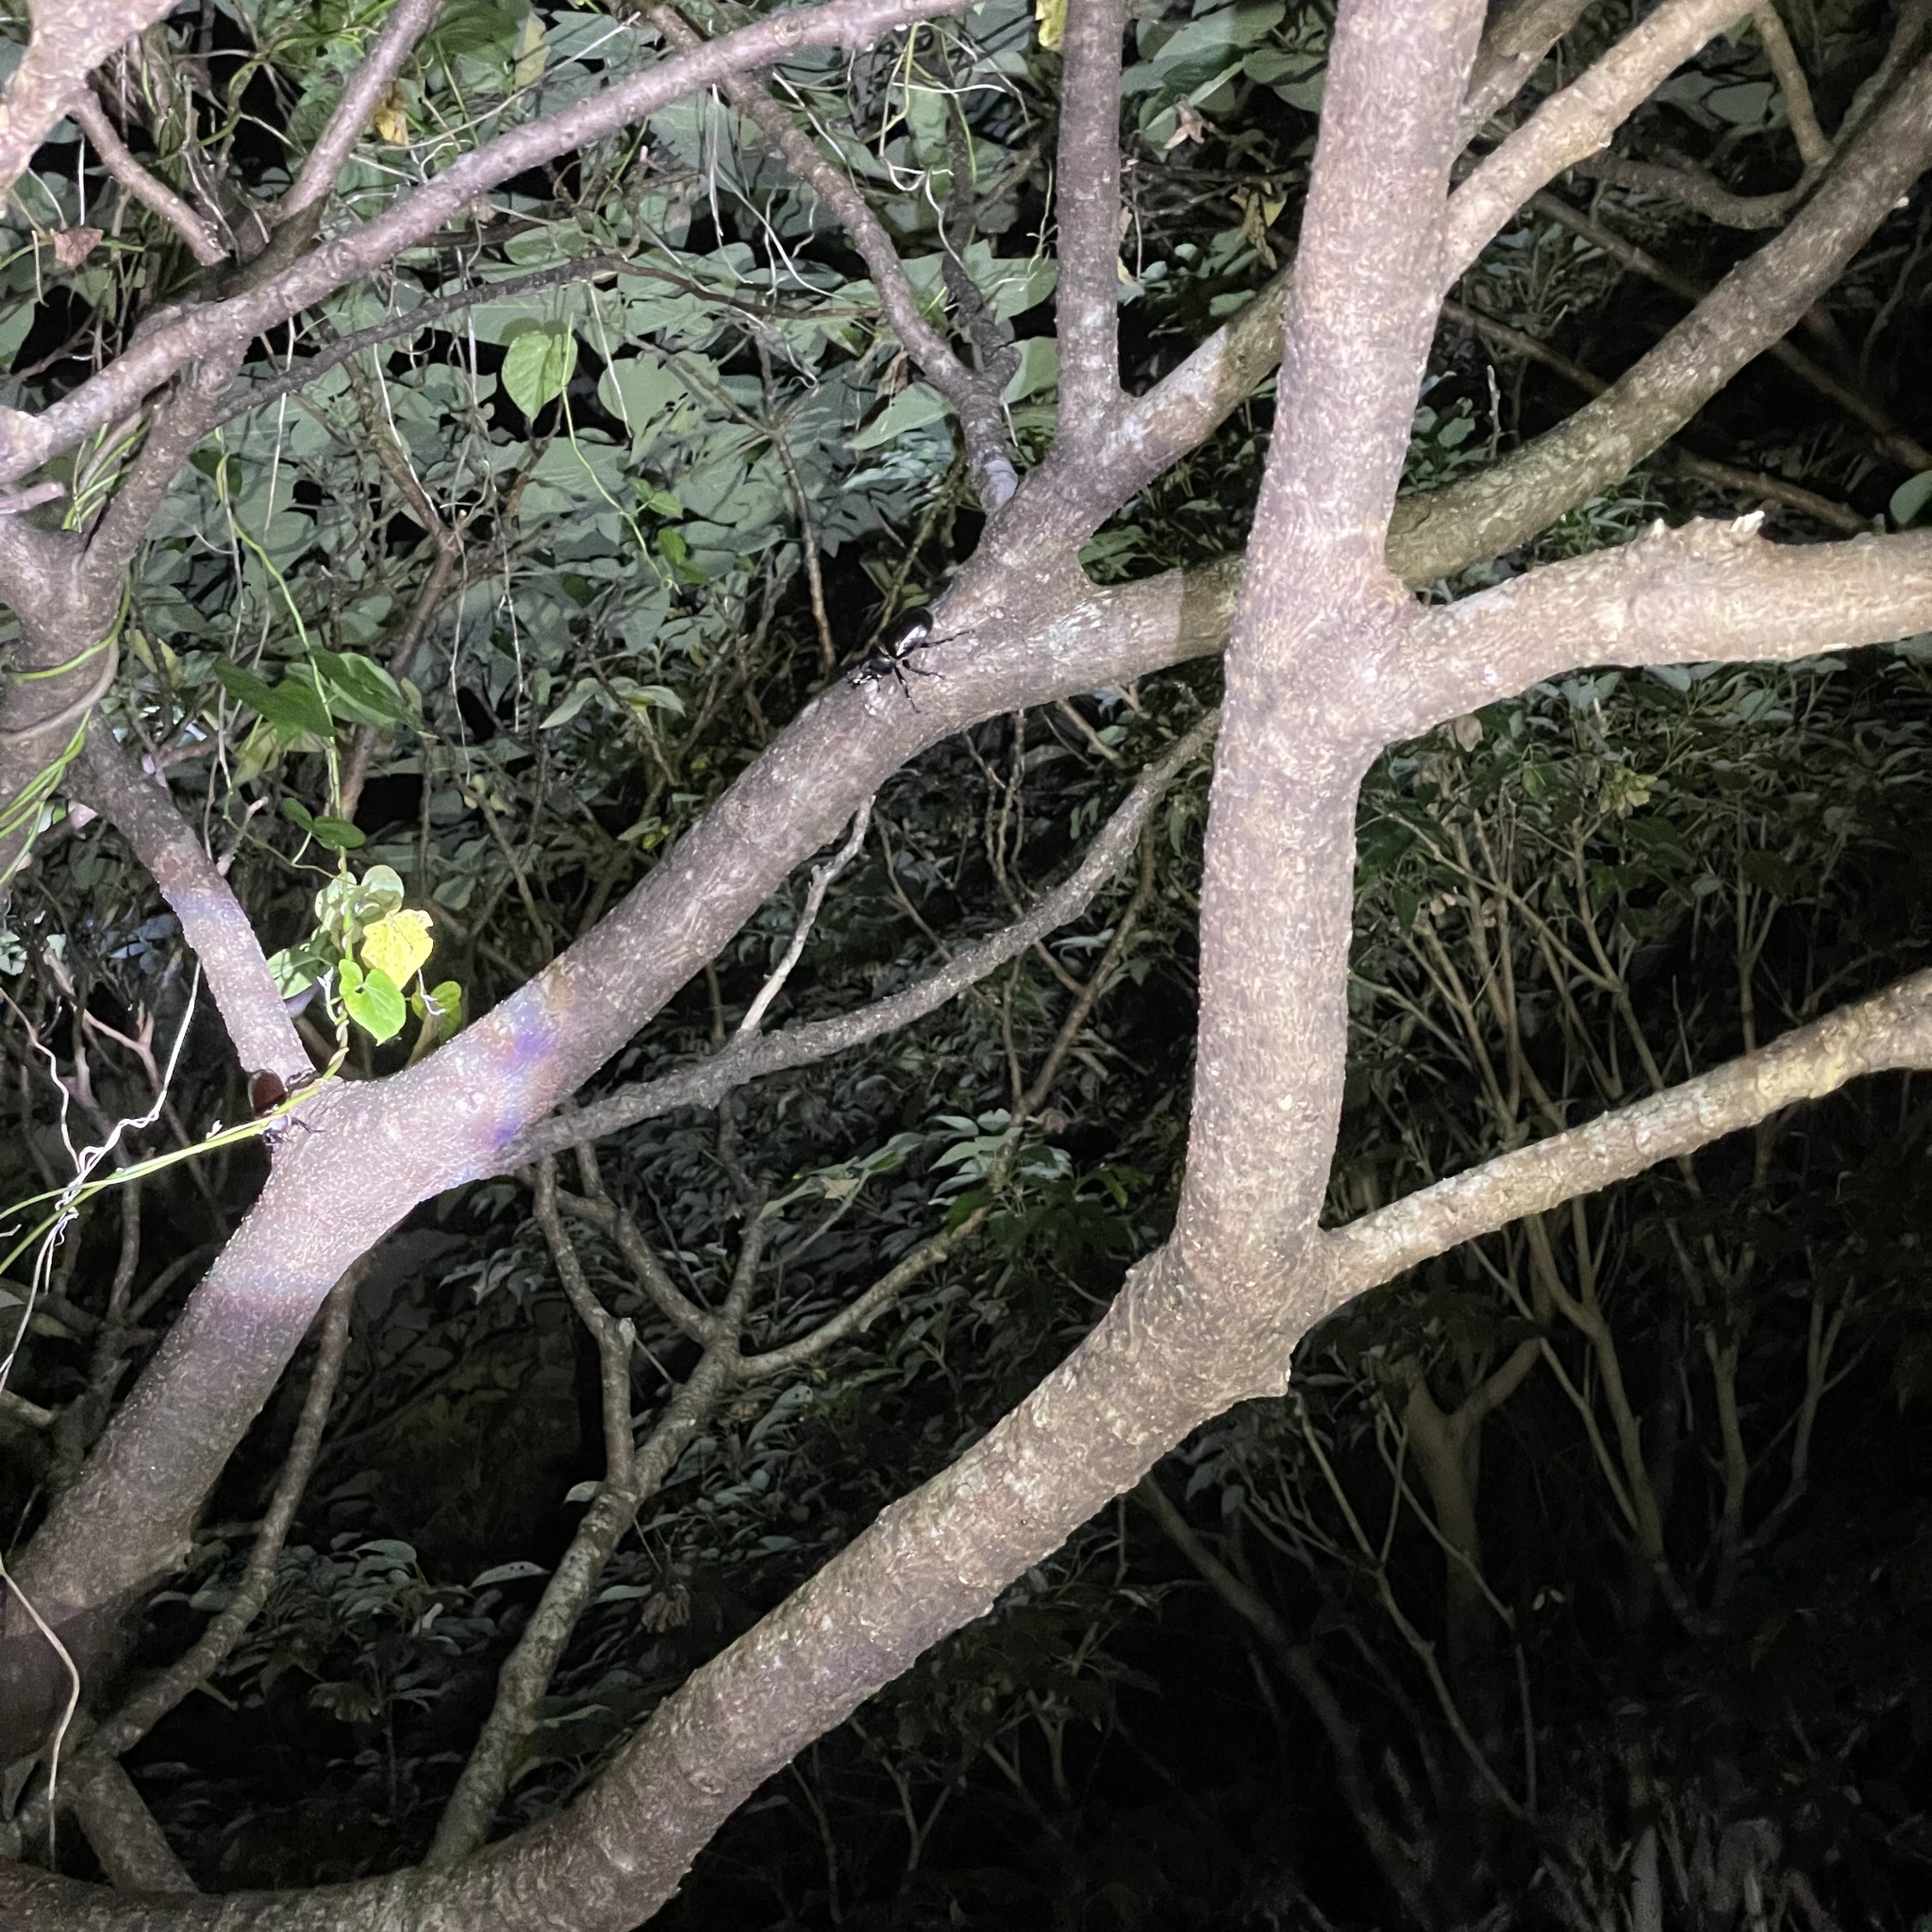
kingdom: Animalia
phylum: Arthropoda
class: Insecta
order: Coleoptera
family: Scarabaeidae
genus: Trypoxylus
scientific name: Trypoxylus dichotomus
